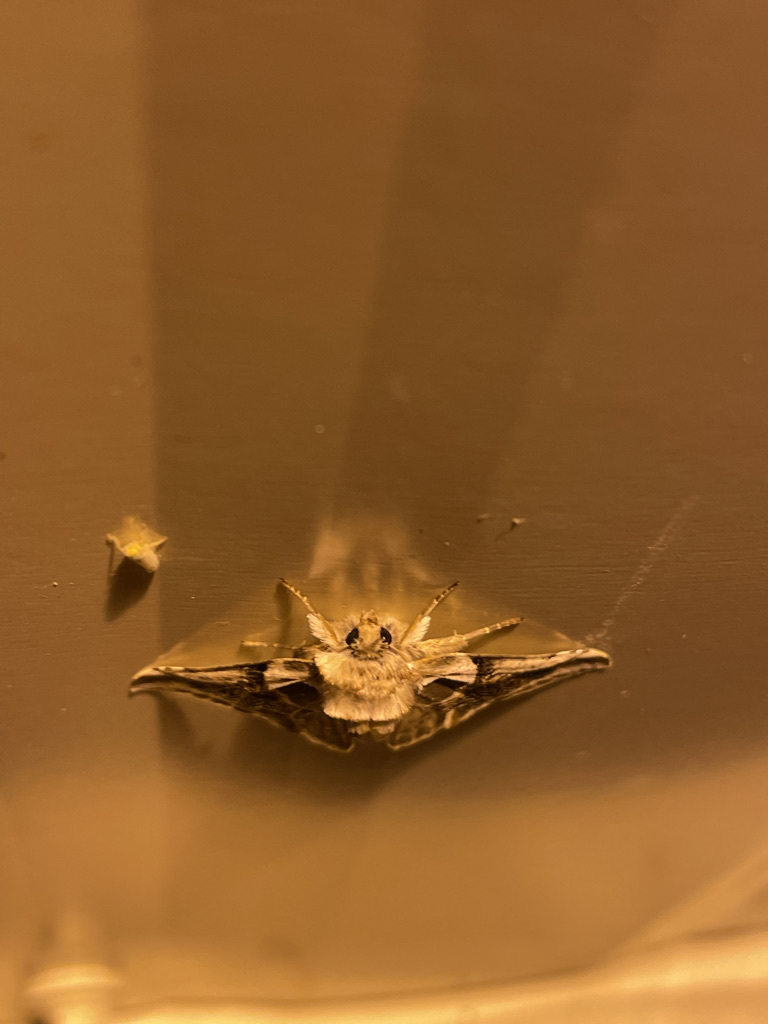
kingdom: Animalia
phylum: Arthropoda
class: Insecta
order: Lepidoptera
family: Drepanidae
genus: Habrosyne
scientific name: Habrosyne scripta
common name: Lettered habrosyne moth
